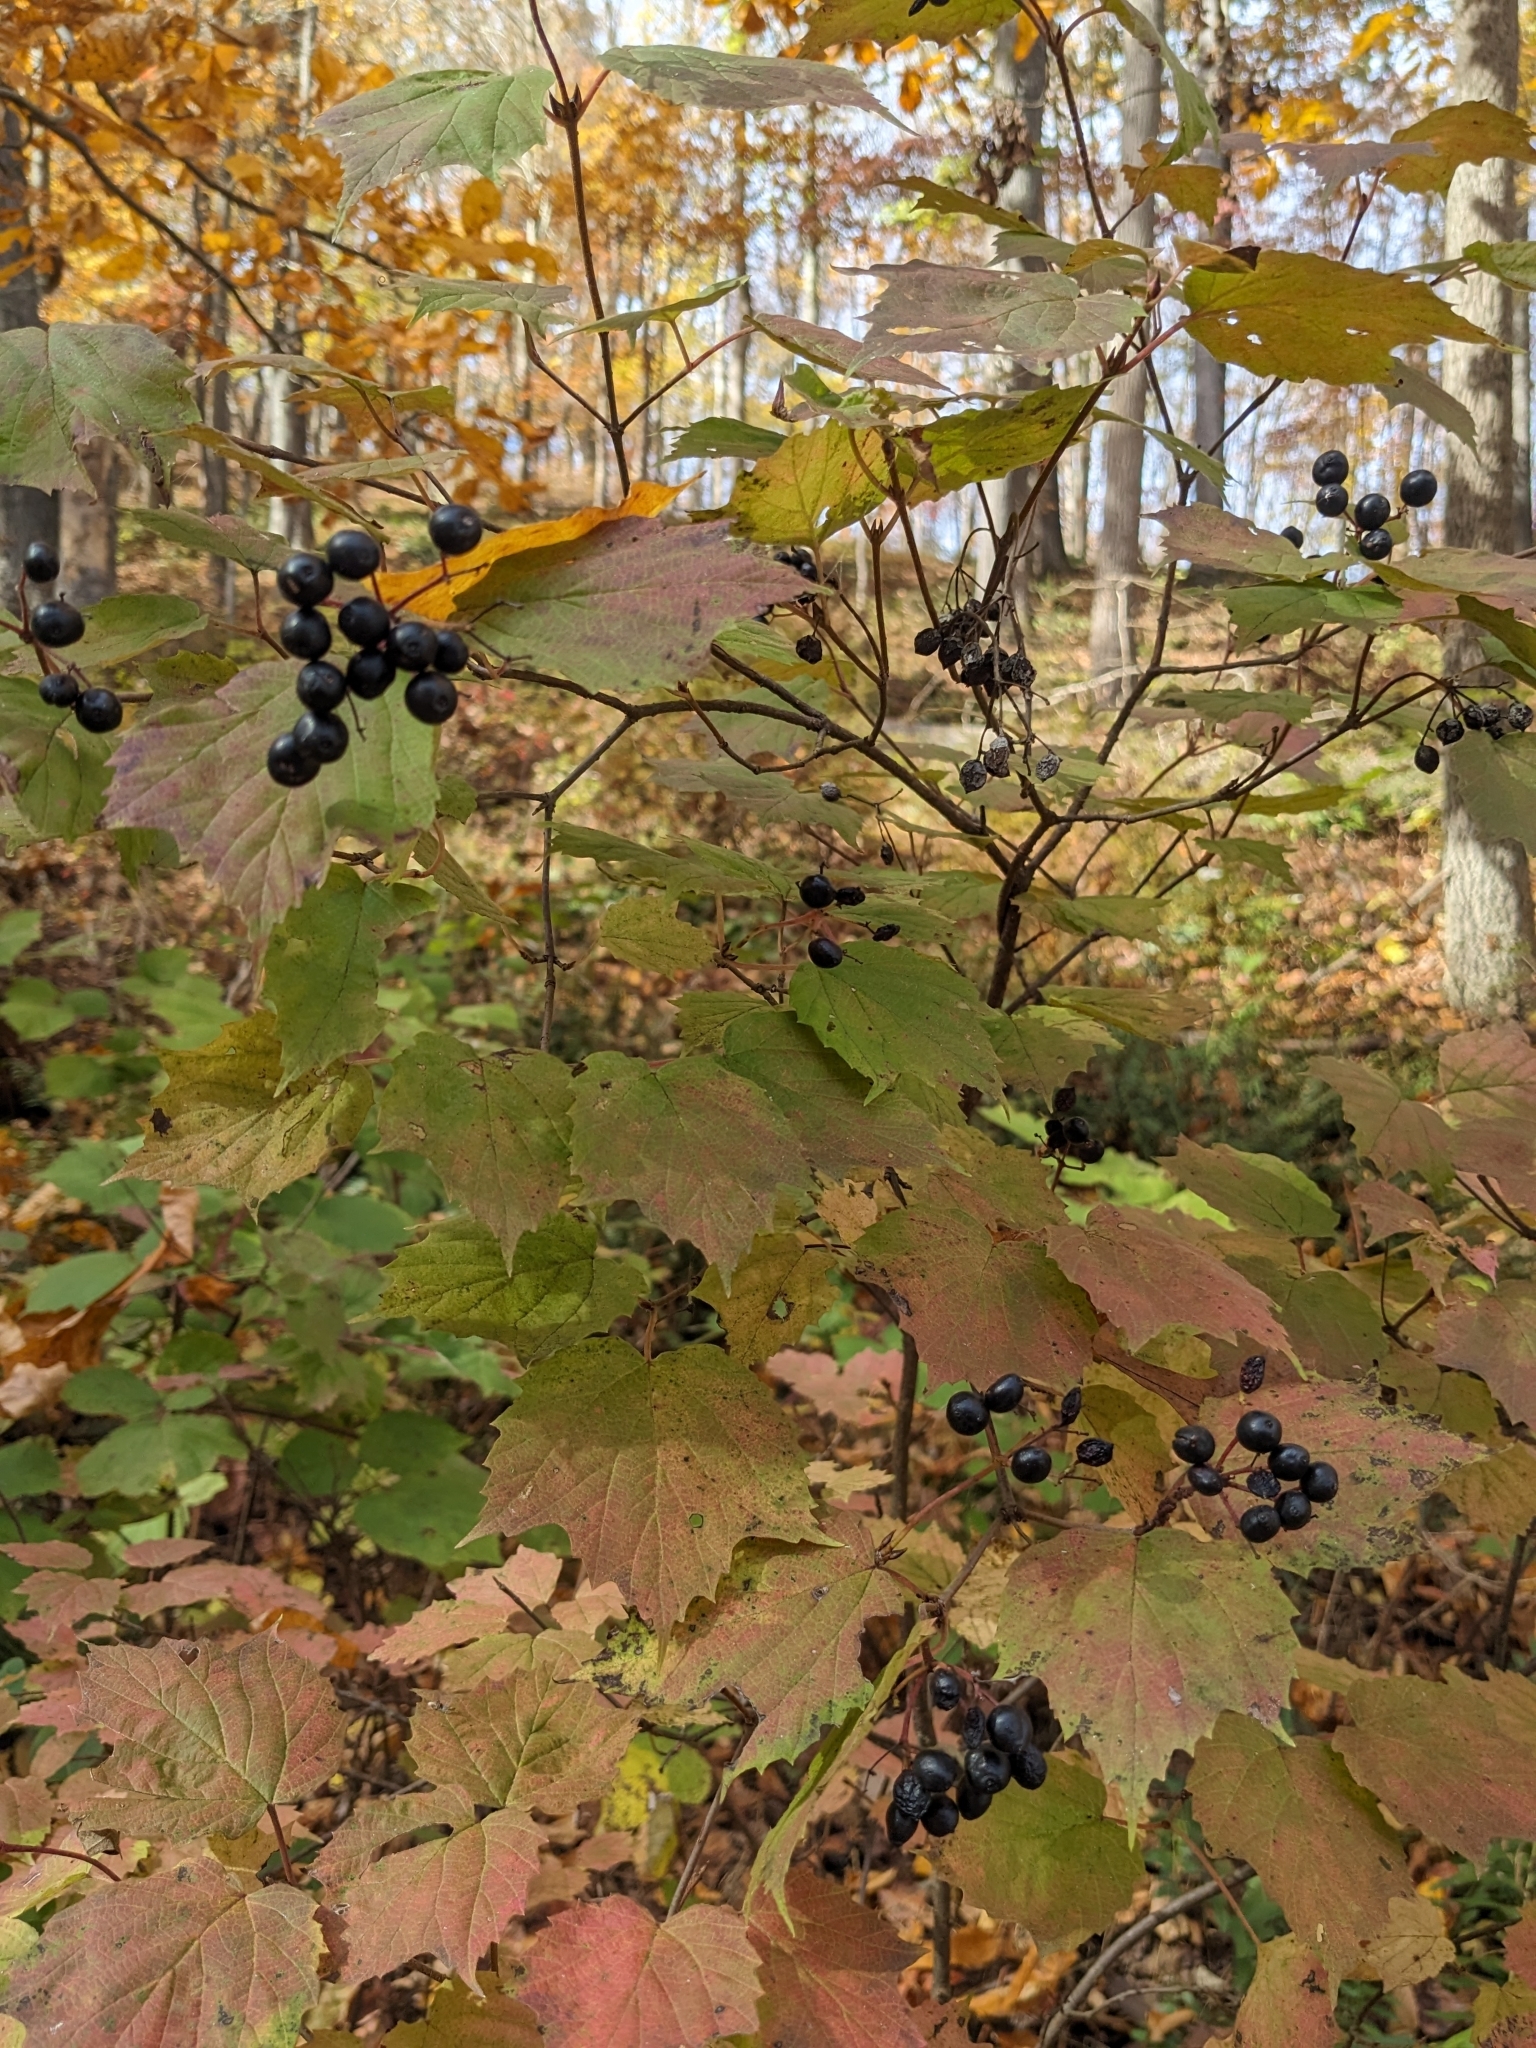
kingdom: Plantae
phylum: Tracheophyta
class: Magnoliopsida
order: Dipsacales
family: Viburnaceae
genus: Viburnum
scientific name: Viburnum acerifolium
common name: Dockmackie
